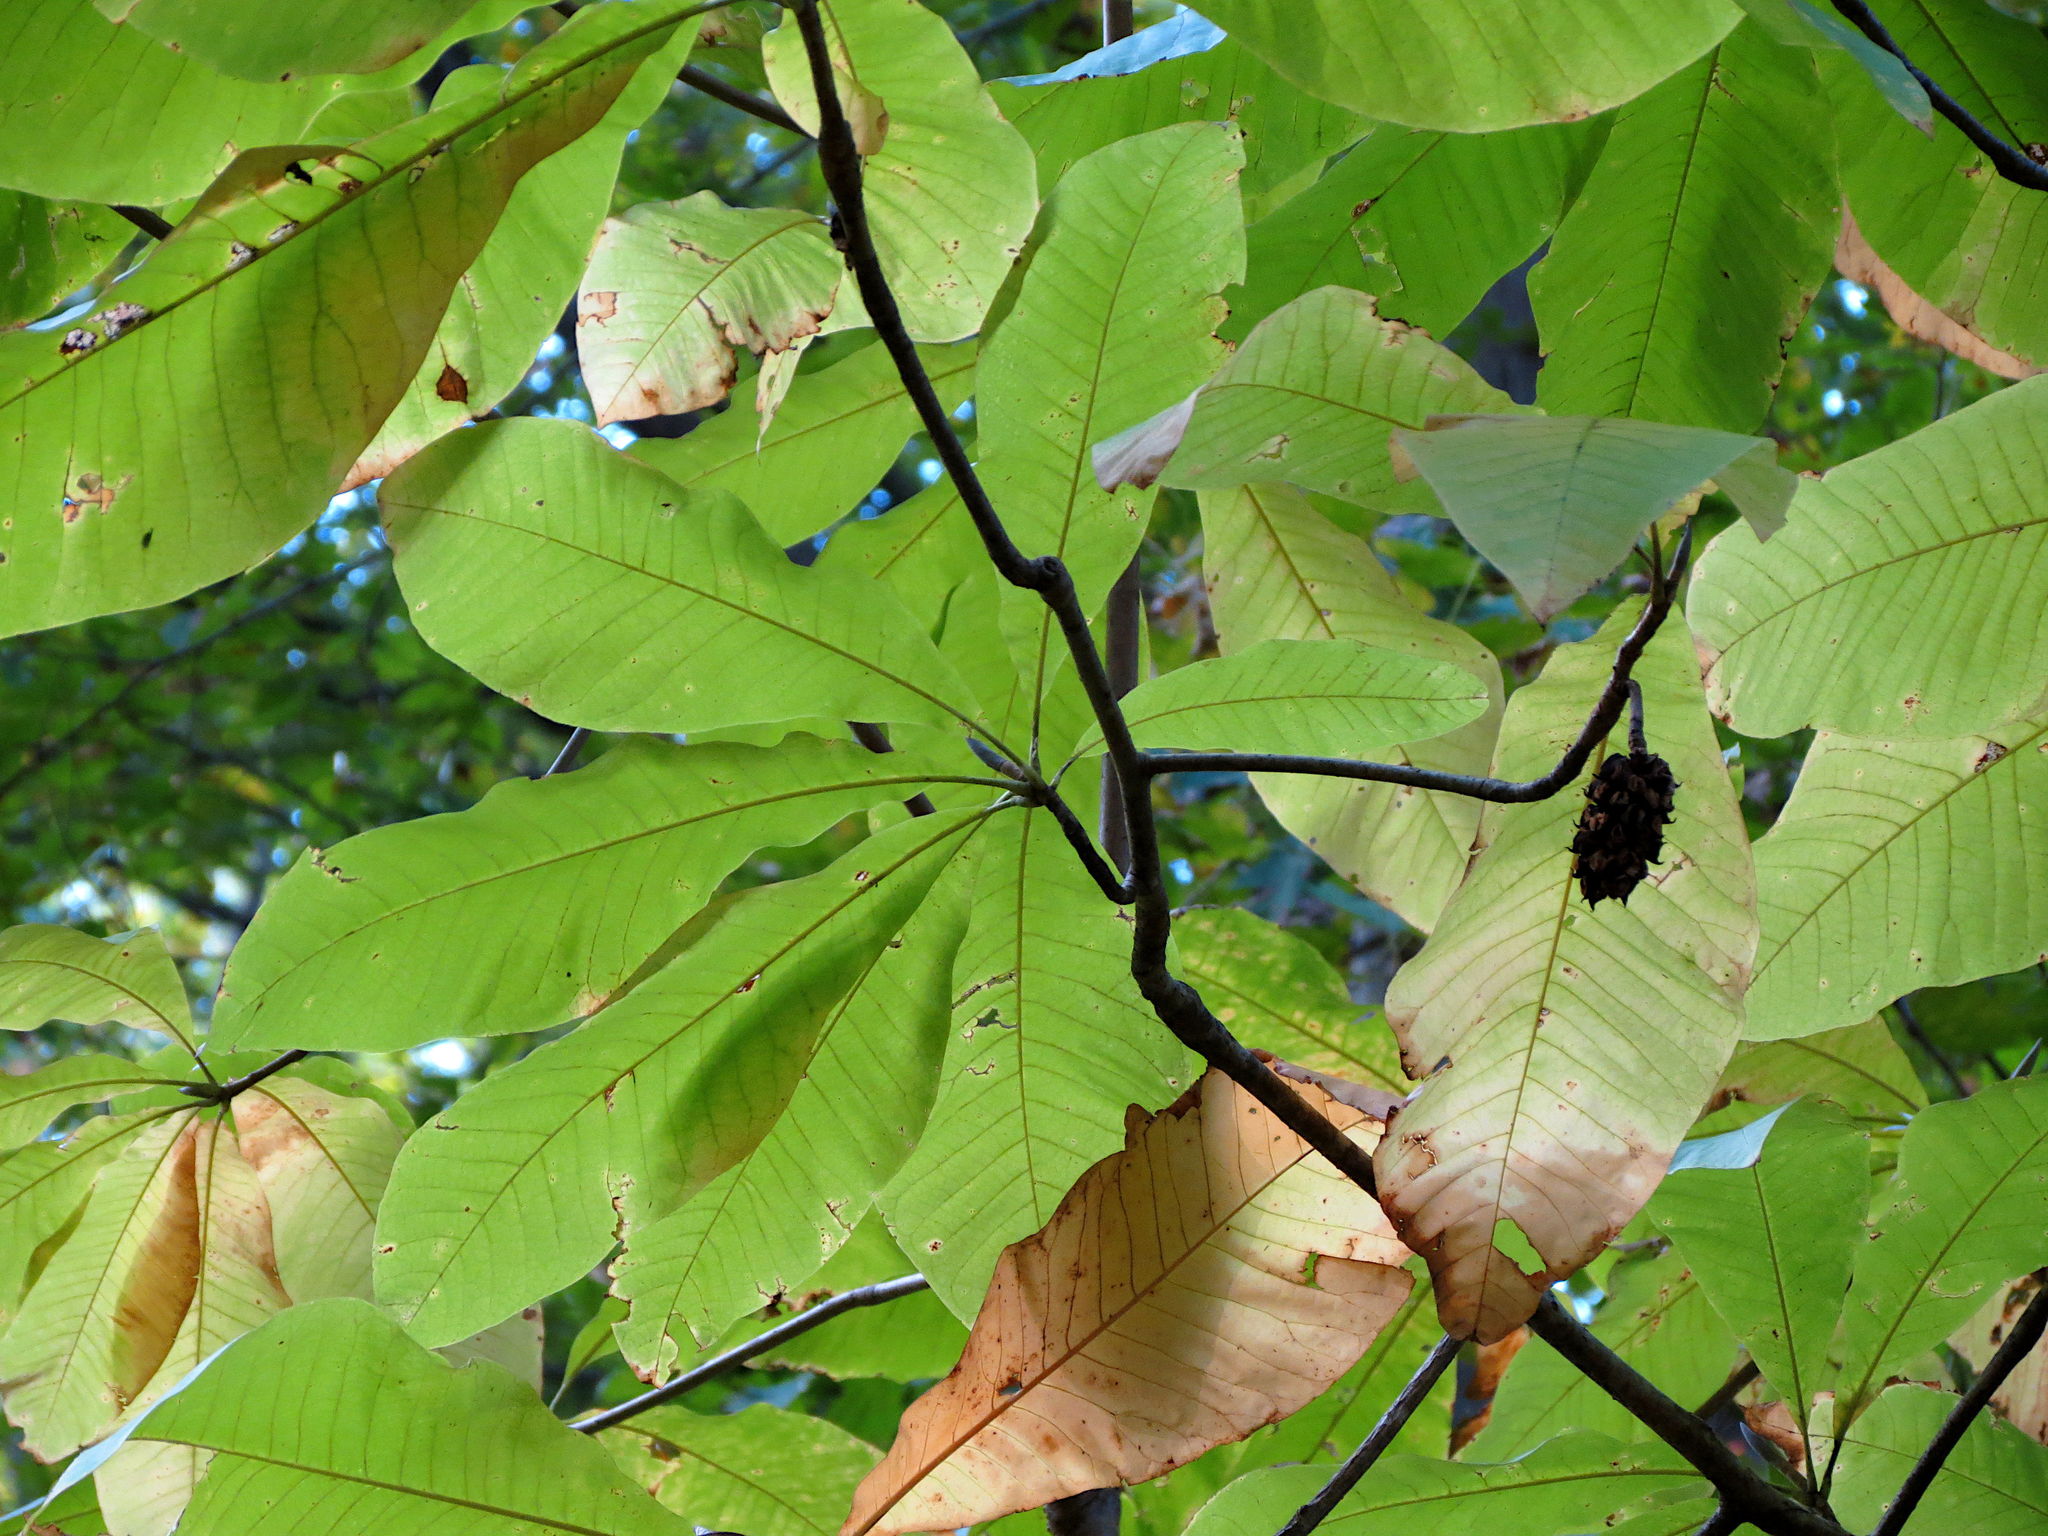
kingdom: Plantae
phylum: Tracheophyta
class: Magnoliopsida
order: Magnoliales
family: Magnoliaceae
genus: Magnolia
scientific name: Magnolia tripetala
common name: Umbrella magnolia
